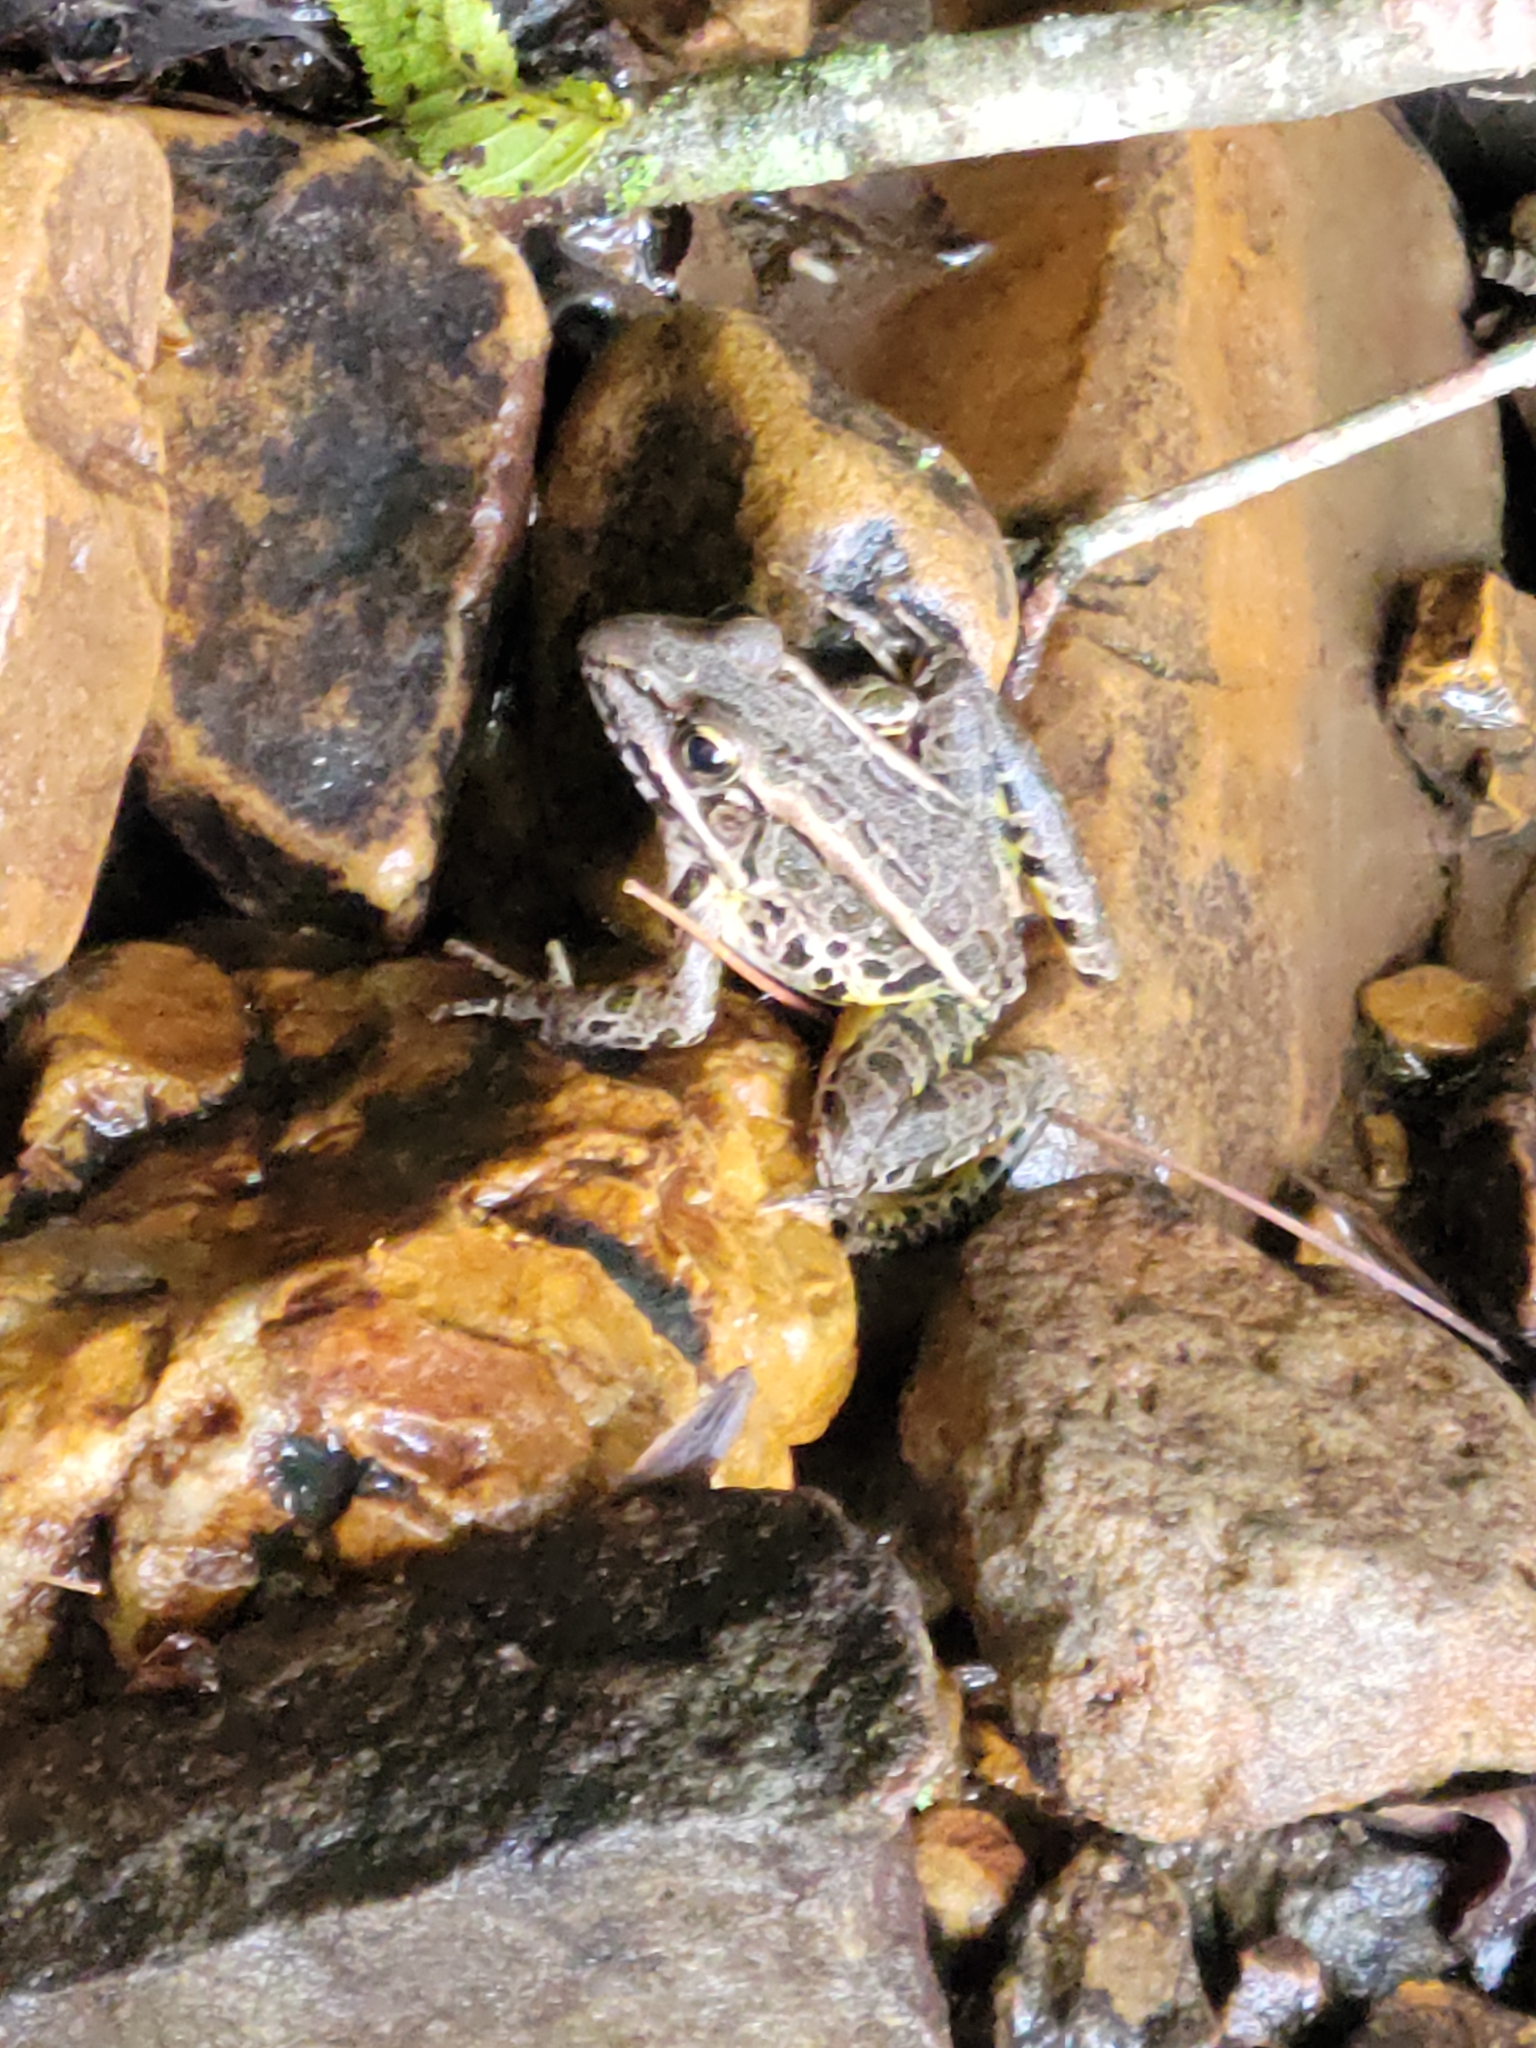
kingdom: Animalia
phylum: Chordata
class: Amphibia
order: Anura
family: Ranidae
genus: Lithobates
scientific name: Lithobates palustris
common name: Pickerel frog
